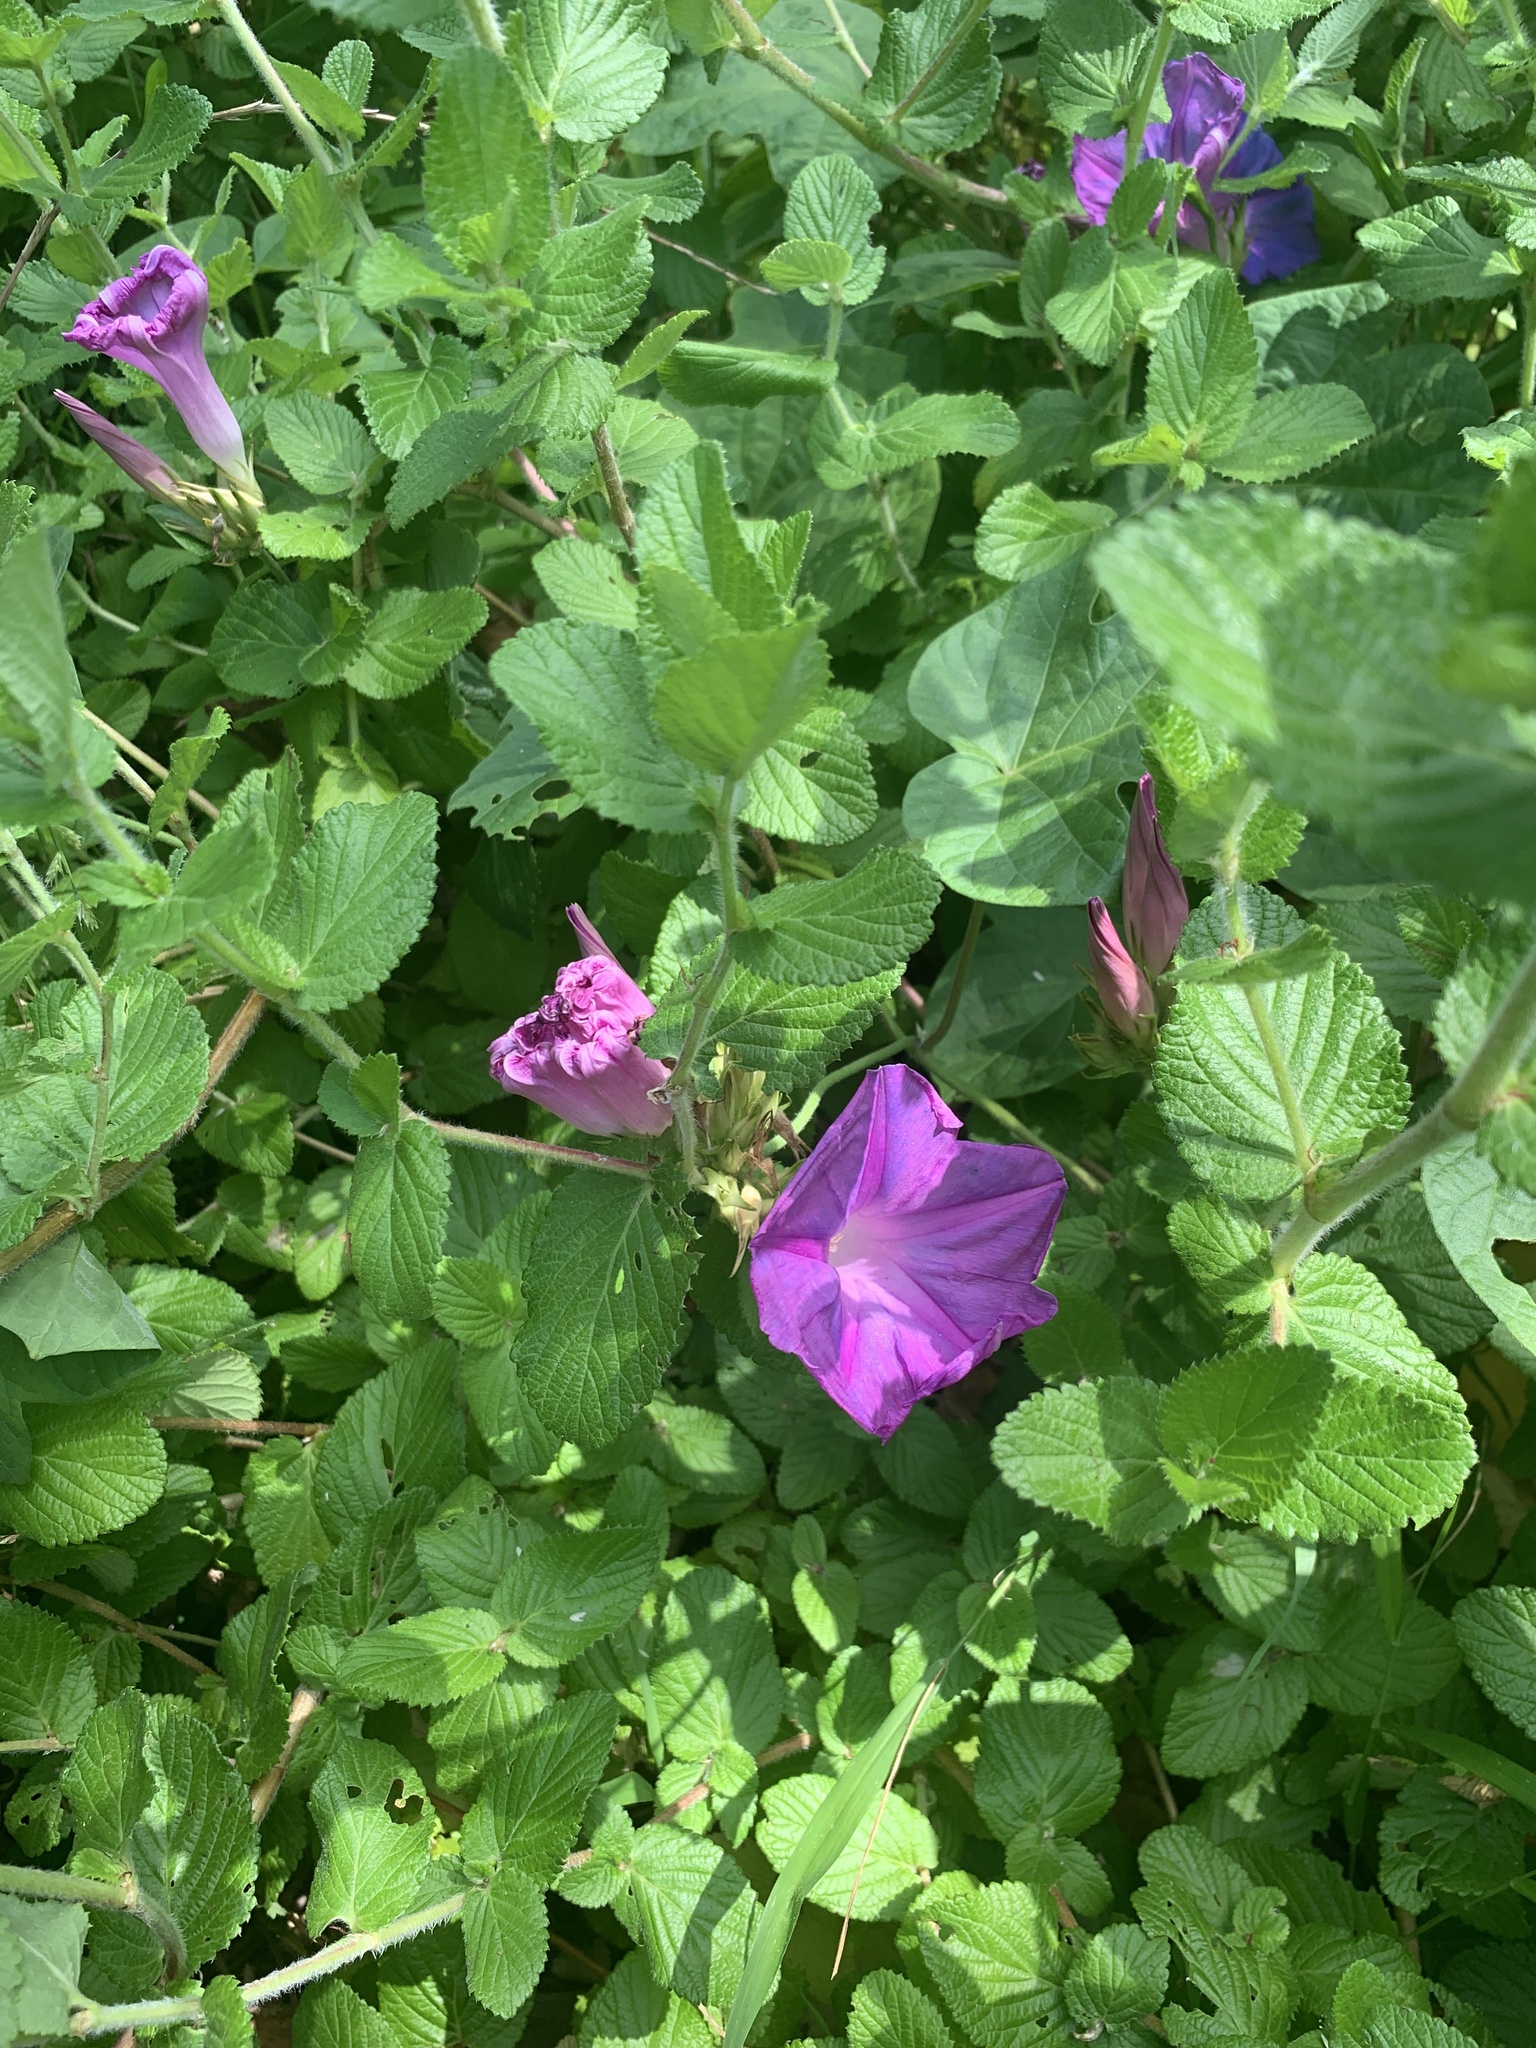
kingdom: Plantae
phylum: Tracheophyta
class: Magnoliopsida
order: Solanales
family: Convolvulaceae
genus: Ipomoea
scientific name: Ipomoea indica
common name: Blue dawnflower
